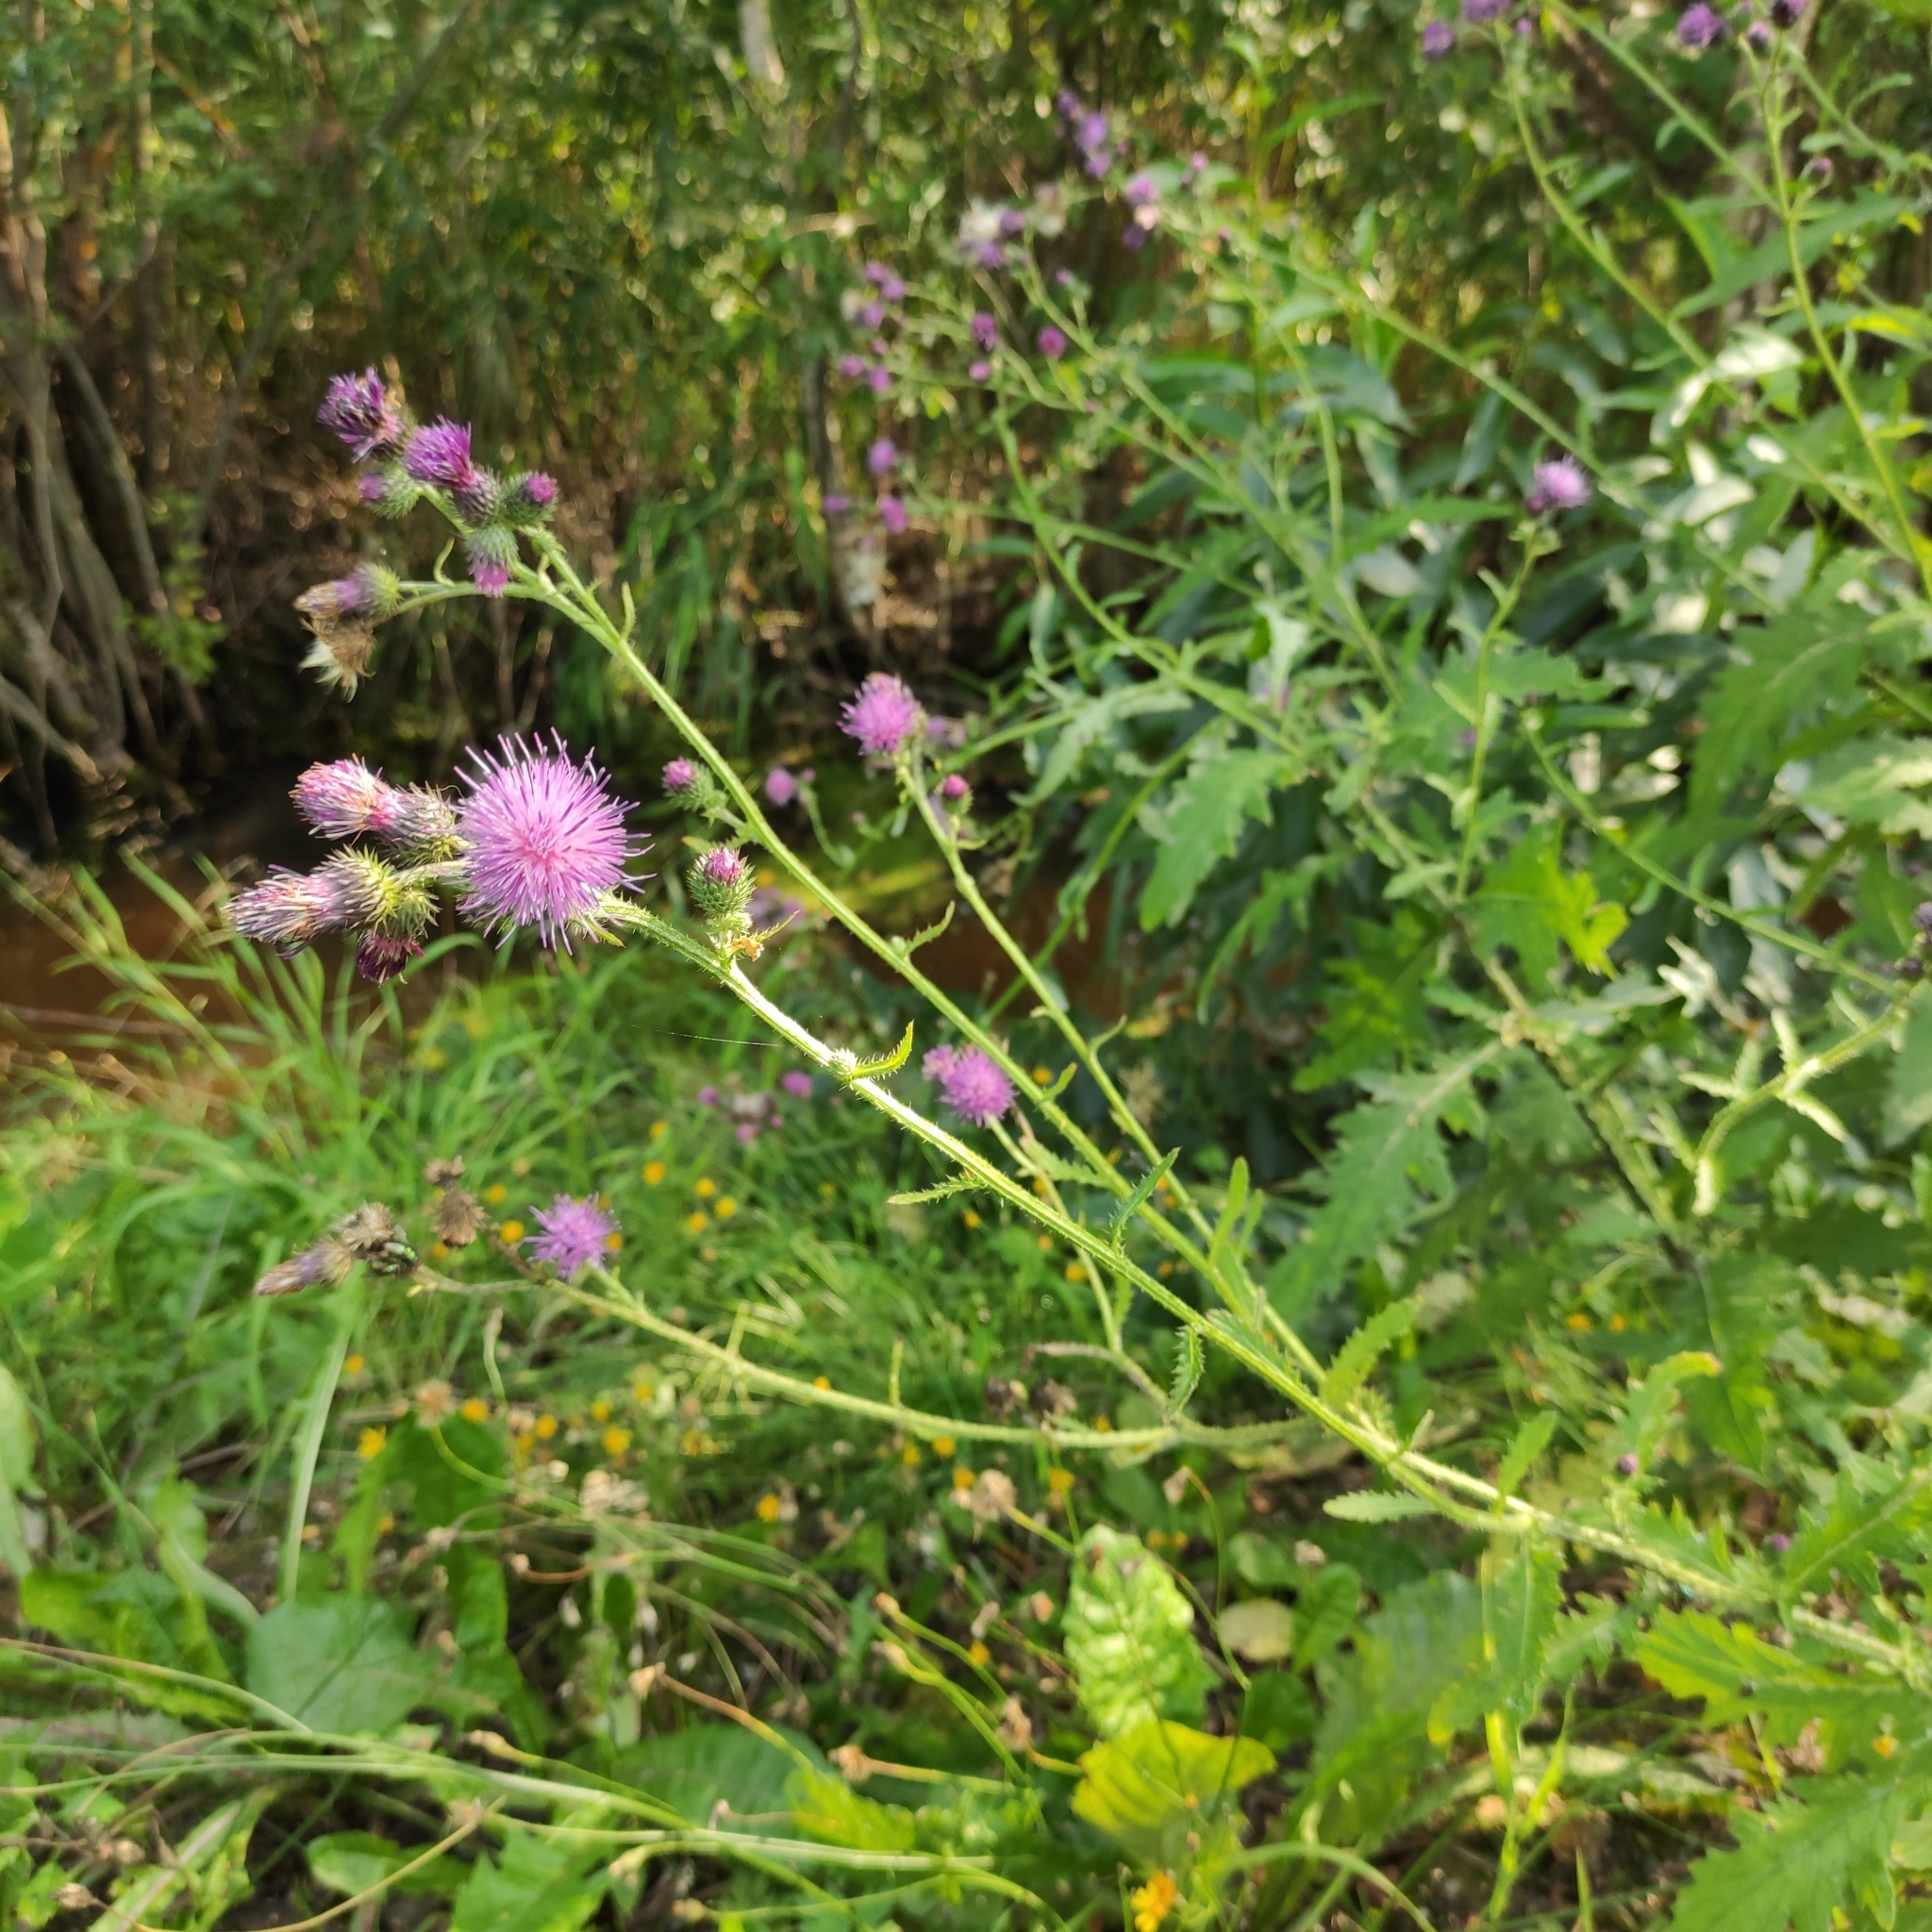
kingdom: Plantae
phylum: Tracheophyta
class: Magnoliopsida
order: Asterales
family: Asteraceae
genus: Carduus
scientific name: Carduus crispus
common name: Welted thistle
